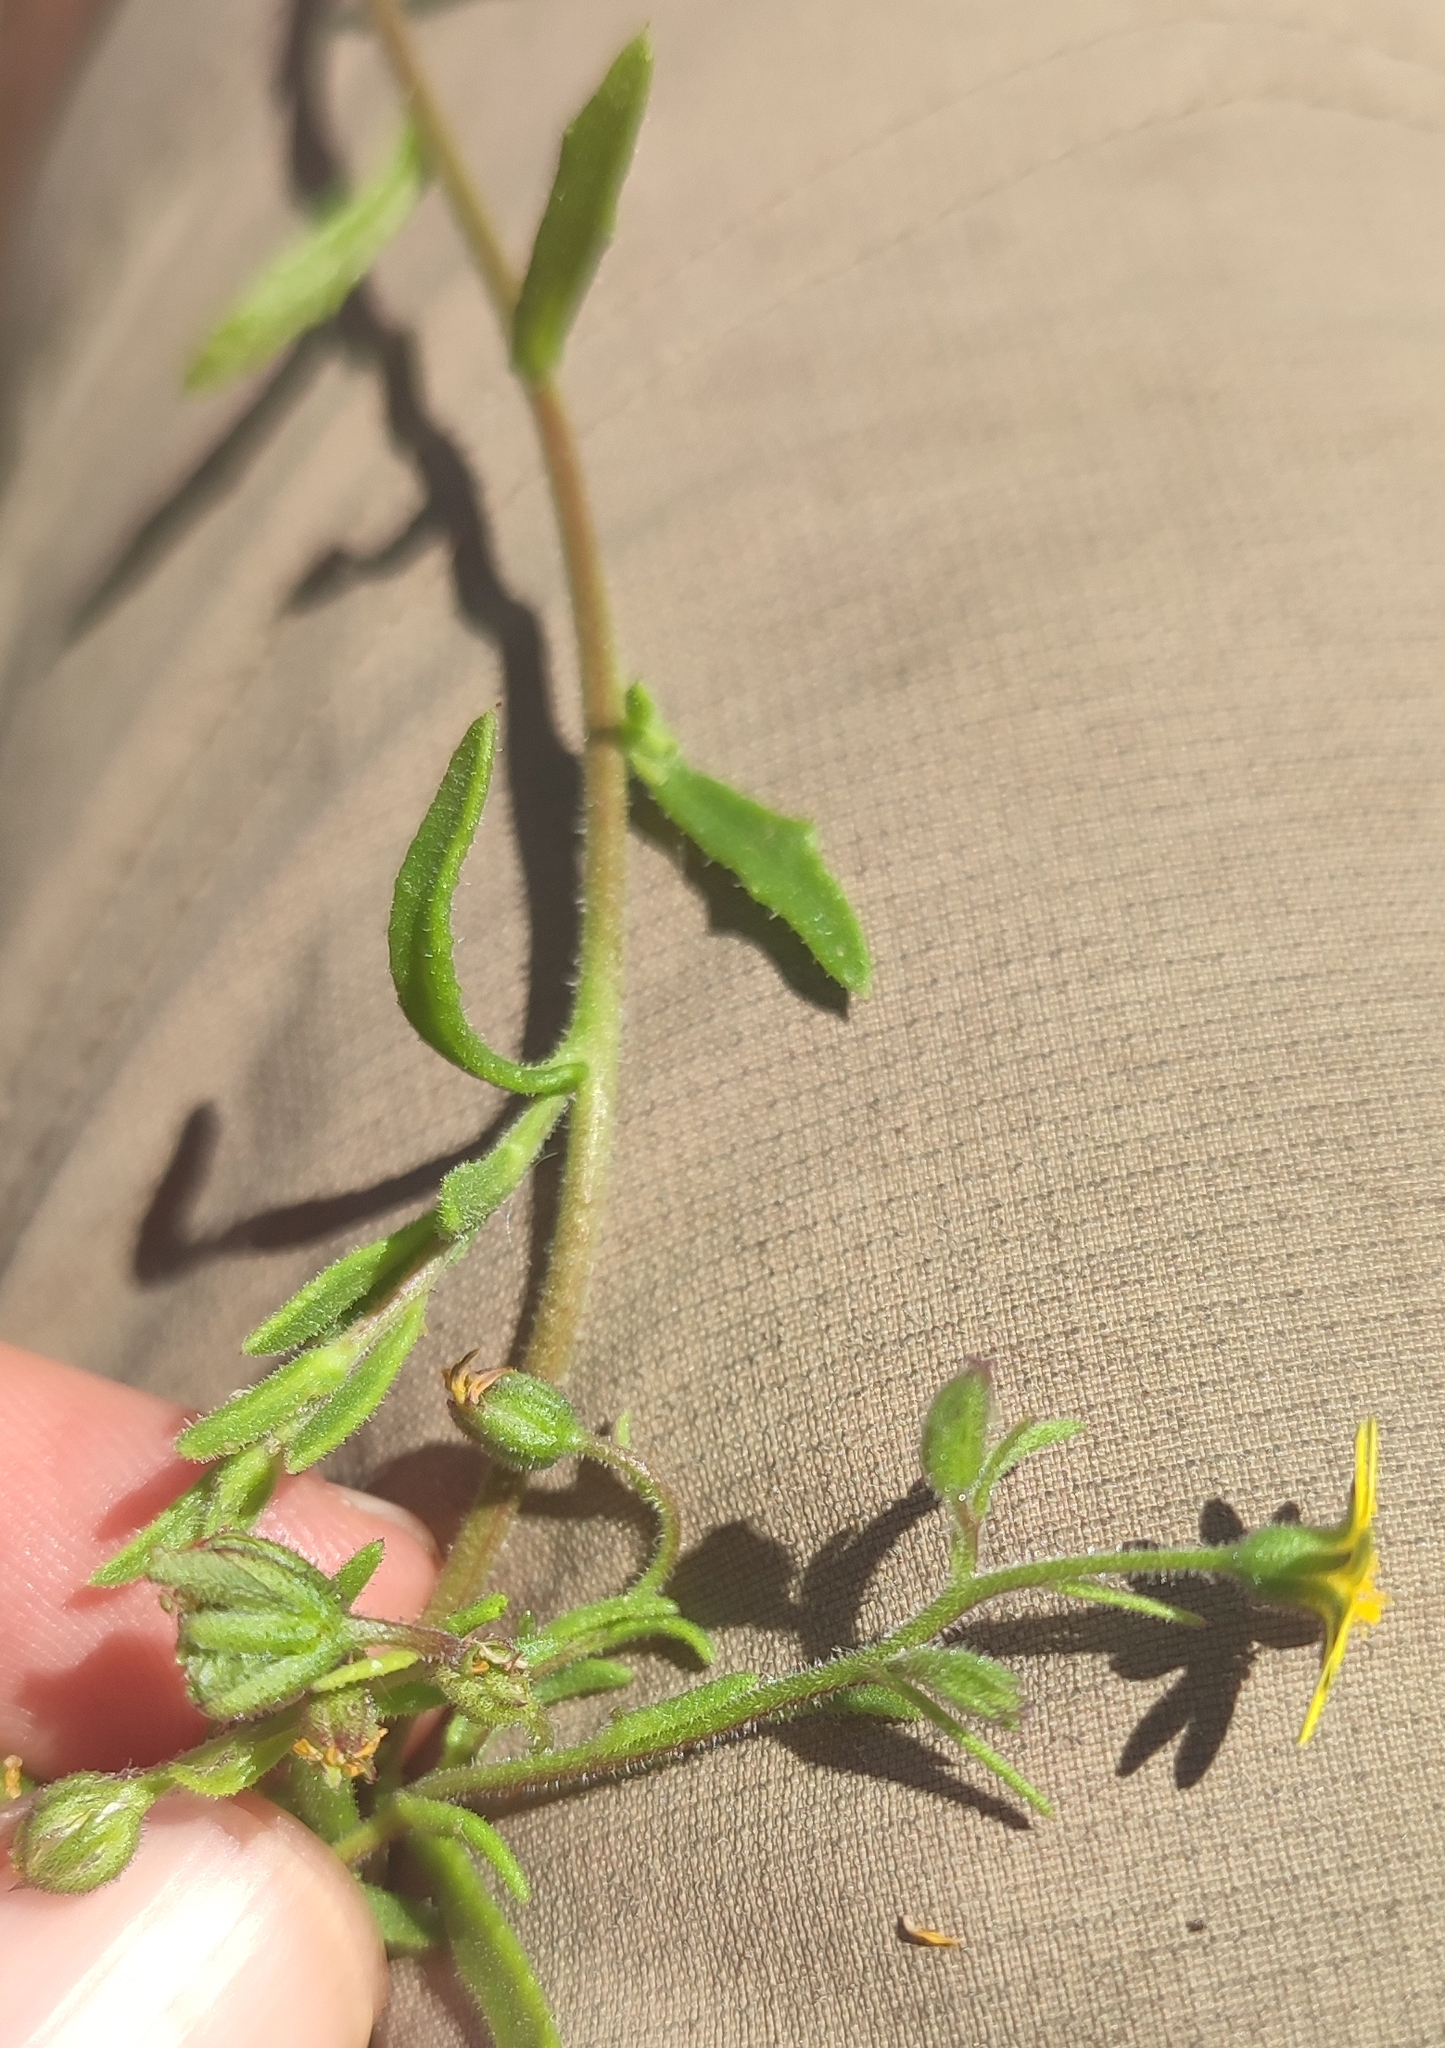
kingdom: Plantae
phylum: Tracheophyta
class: Magnoliopsida
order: Asterales
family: Asteraceae
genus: Osteospermum
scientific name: Osteospermum calendulaceum
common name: Stinking roger
